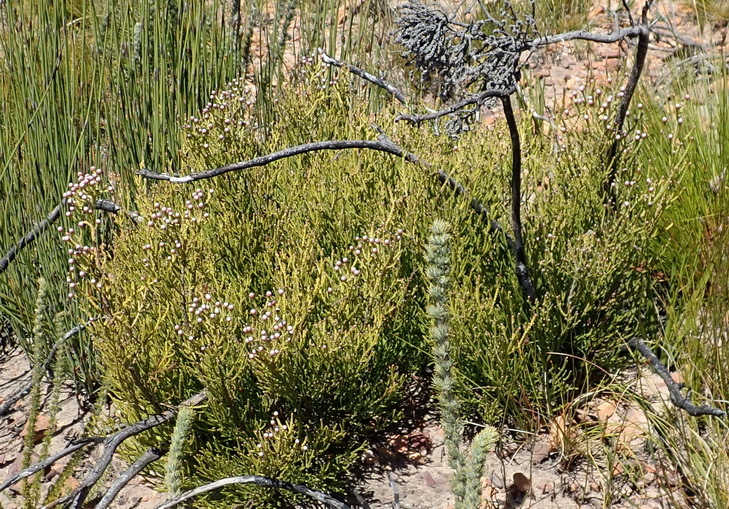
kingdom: Plantae
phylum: Tracheophyta
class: Magnoliopsida
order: Bruniales
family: Bruniaceae
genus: Brunia
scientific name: Brunia noduliflora
